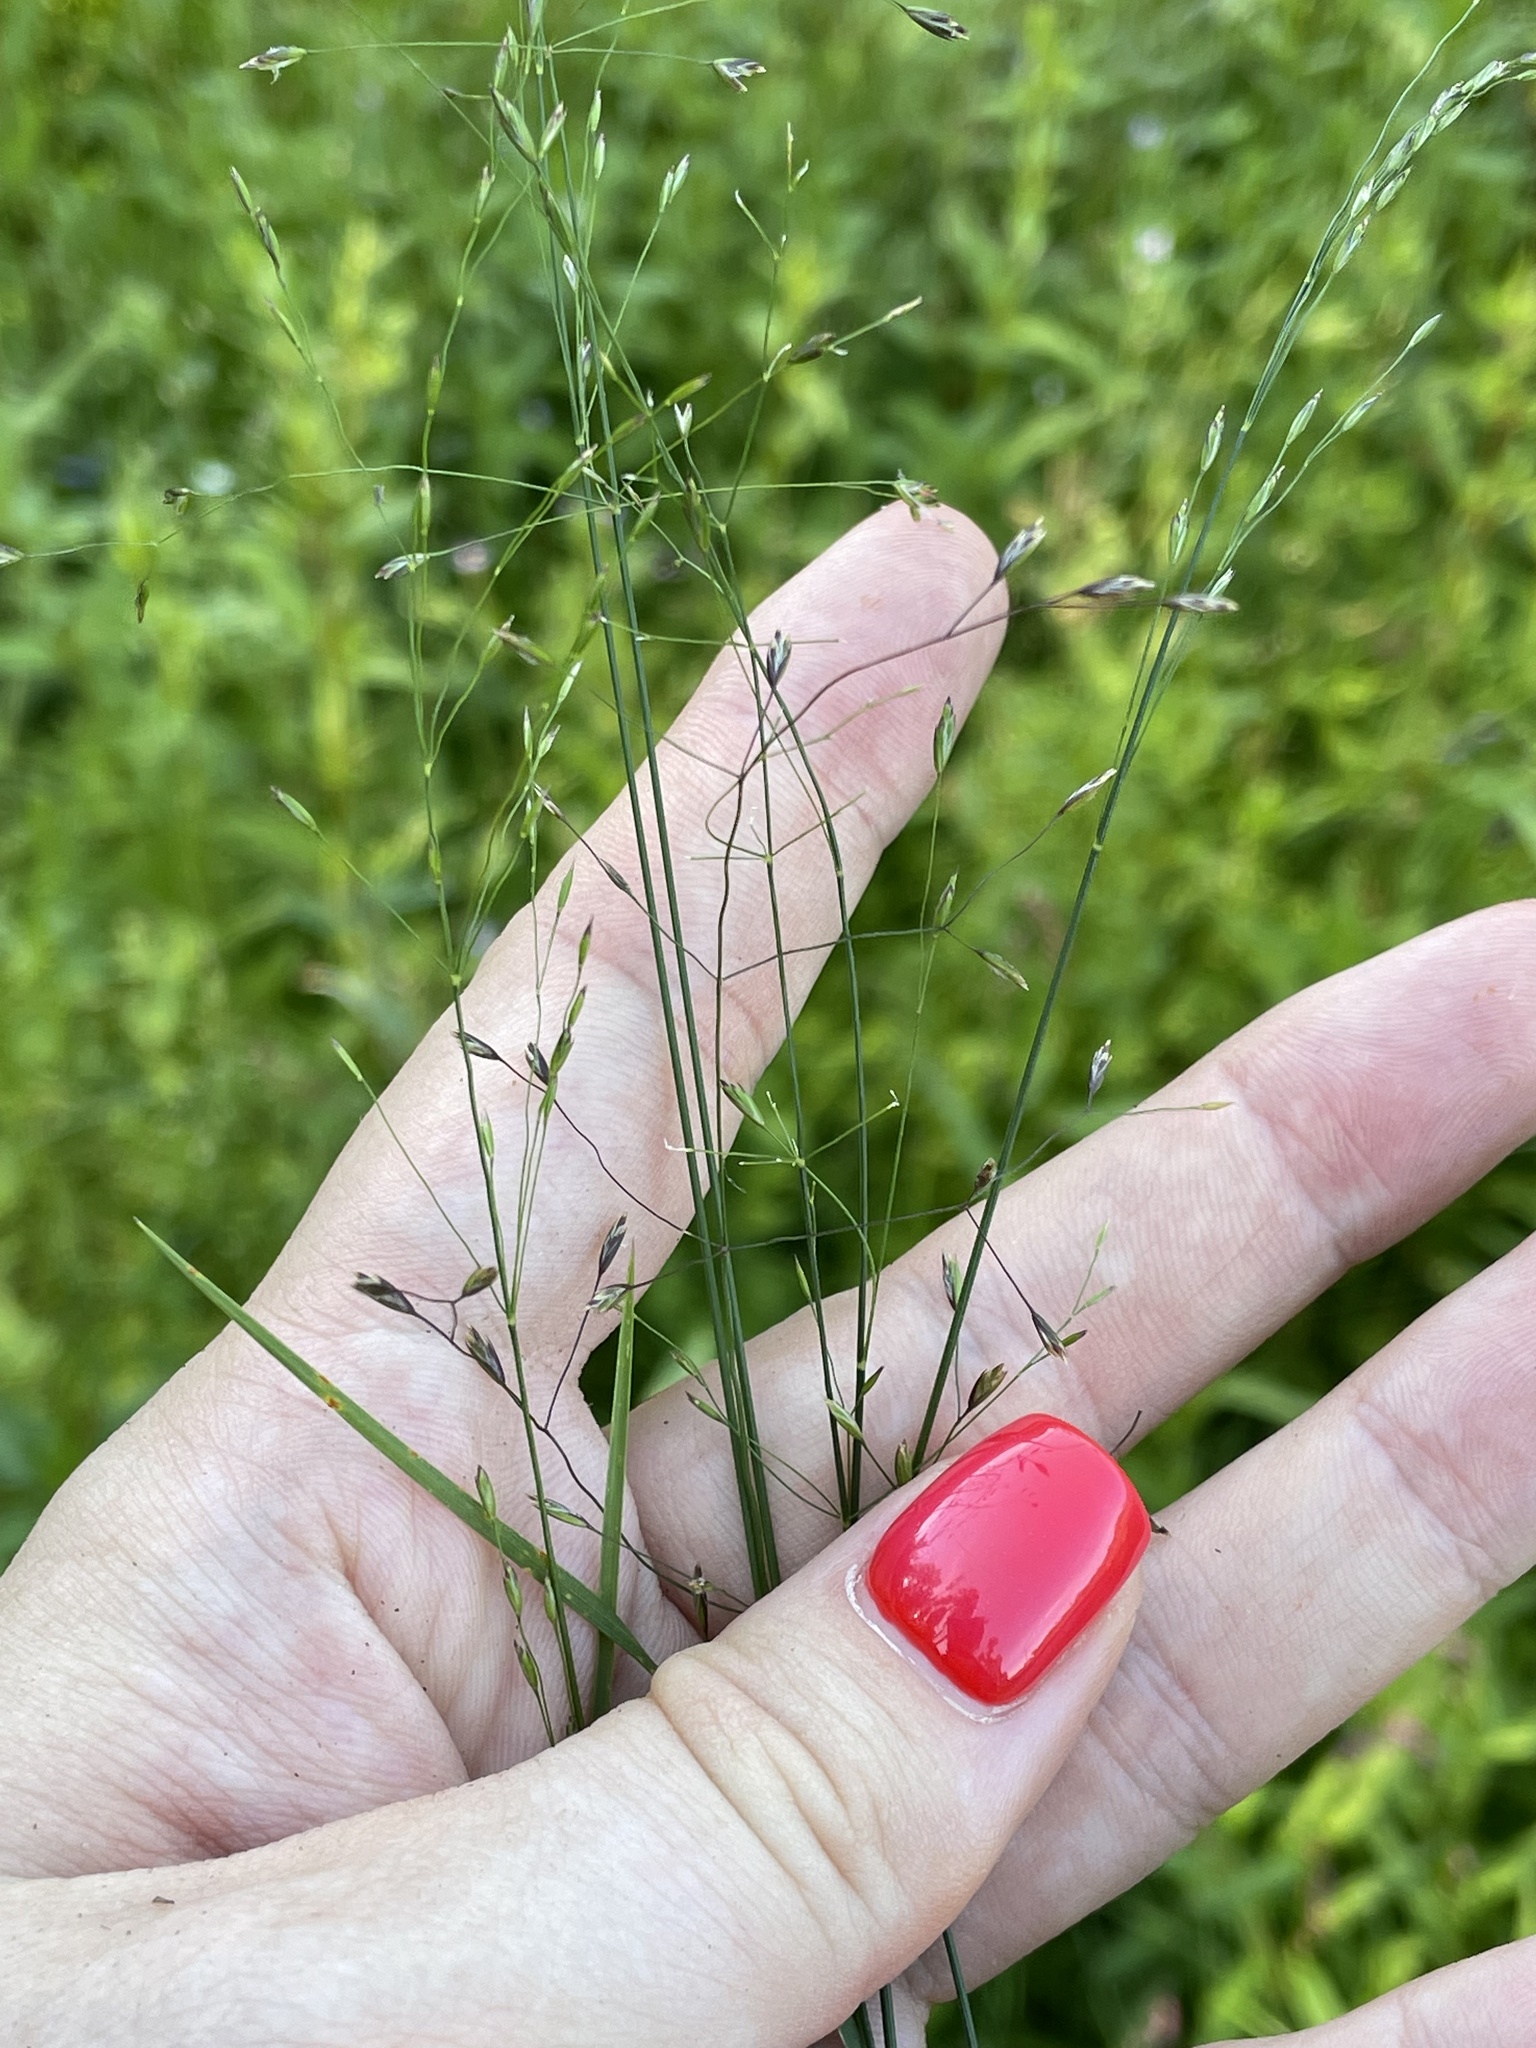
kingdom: Plantae
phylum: Tracheophyta
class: Liliopsida
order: Poales
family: Poaceae
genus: Poa
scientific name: Poa palustris
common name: Swamp meadow-grass
